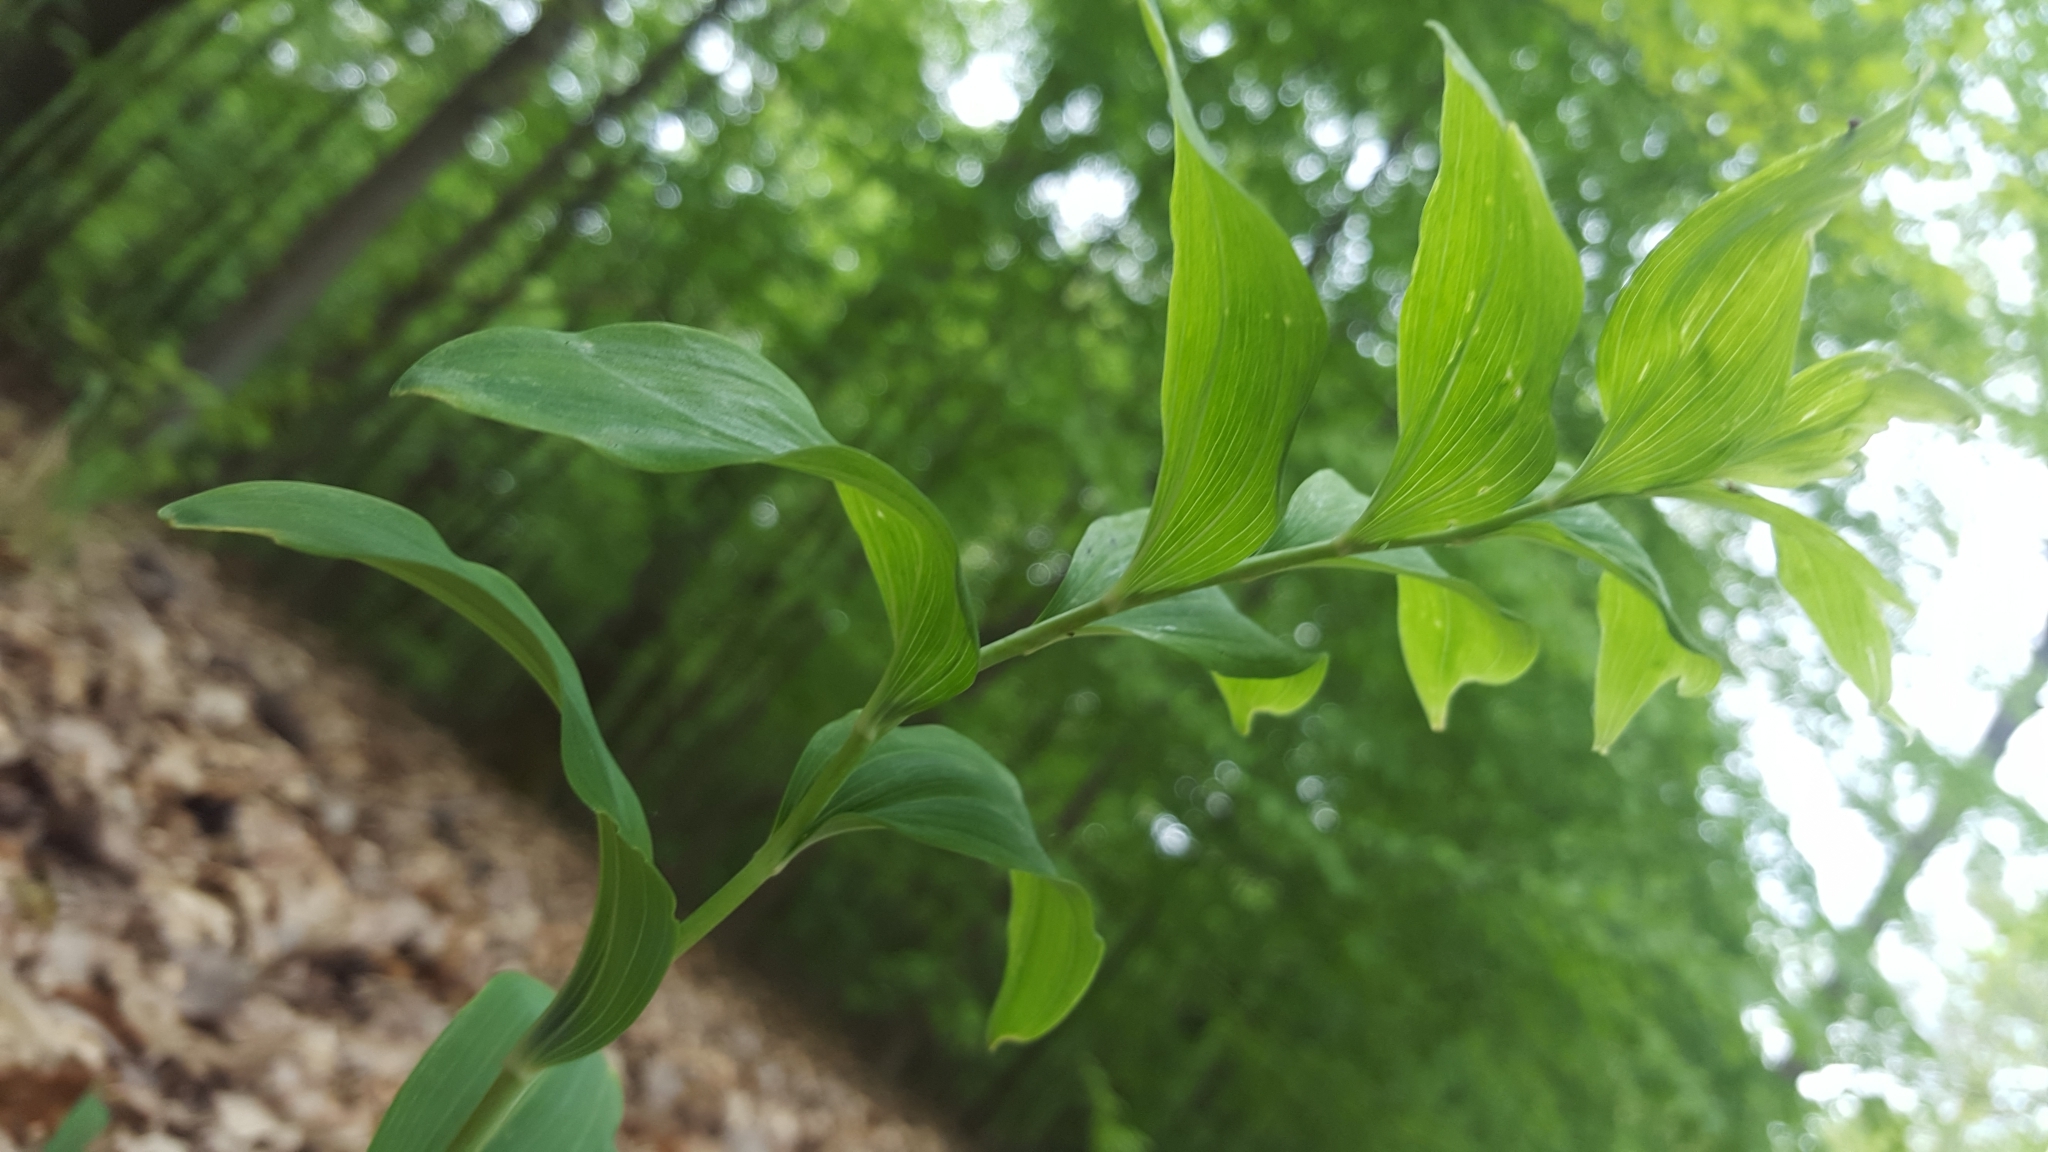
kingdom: Plantae
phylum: Tracheophyta
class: Liliopsida
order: Asparagales
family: Asparagaceae
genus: Polygonatum
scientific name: Polygonatum multiflorum
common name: Solomon's-seal
